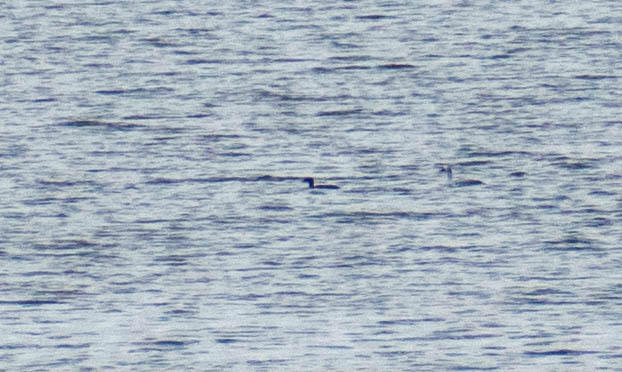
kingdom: Animalia
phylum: Chordata
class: Aves
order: Anseriformes
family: Anatidae
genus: Mergellus
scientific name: Mergellus albellus
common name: Smew
